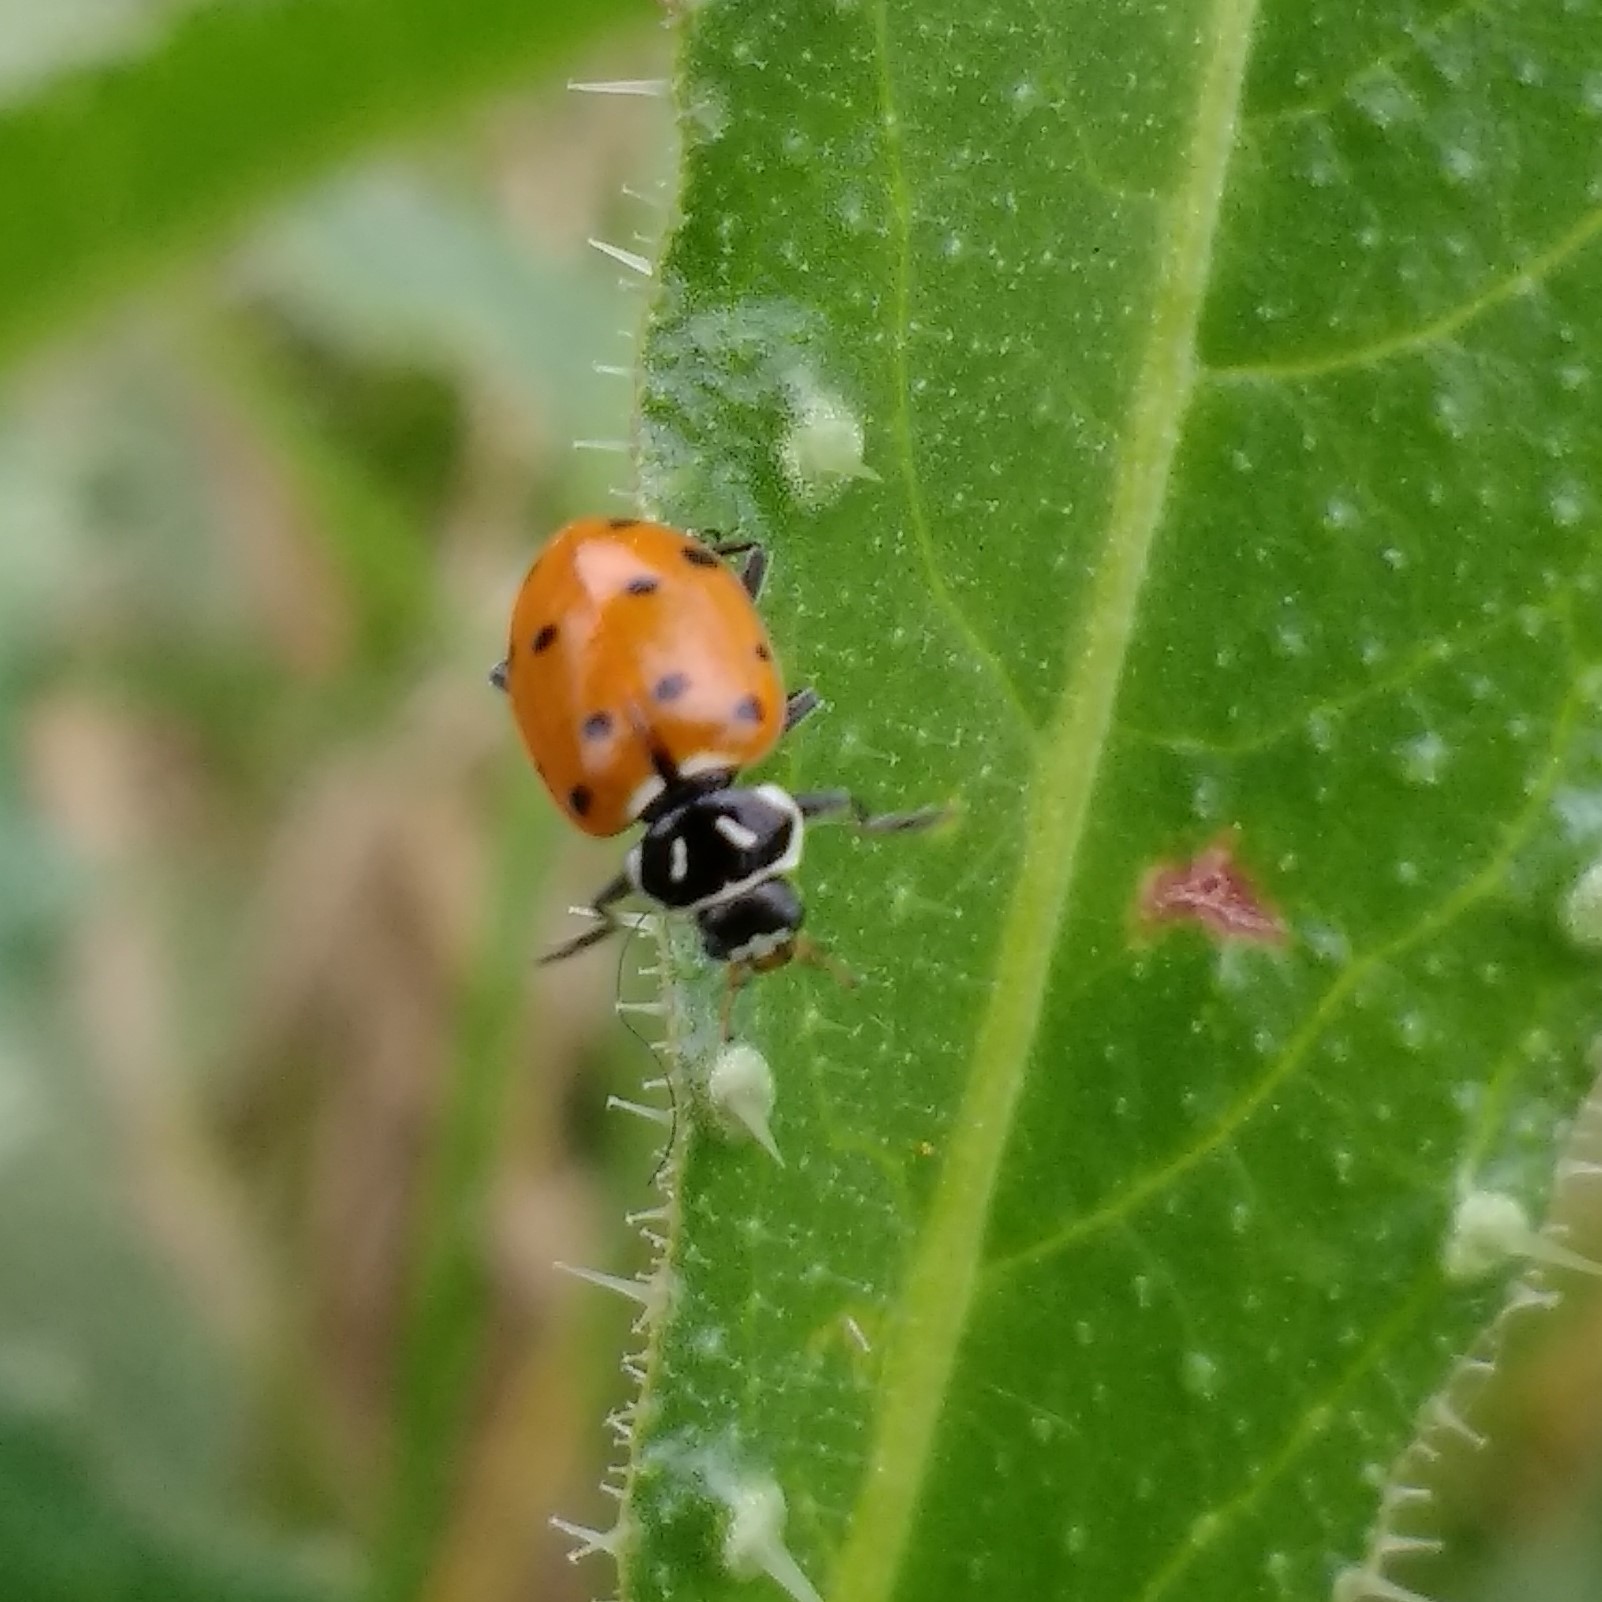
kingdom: Animalia
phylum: Arthropoda
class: Insecta
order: Coleoptera
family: Coccinellidae
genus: Hippodamia
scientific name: Hippodamia convergens
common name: Convergent lady beetle
